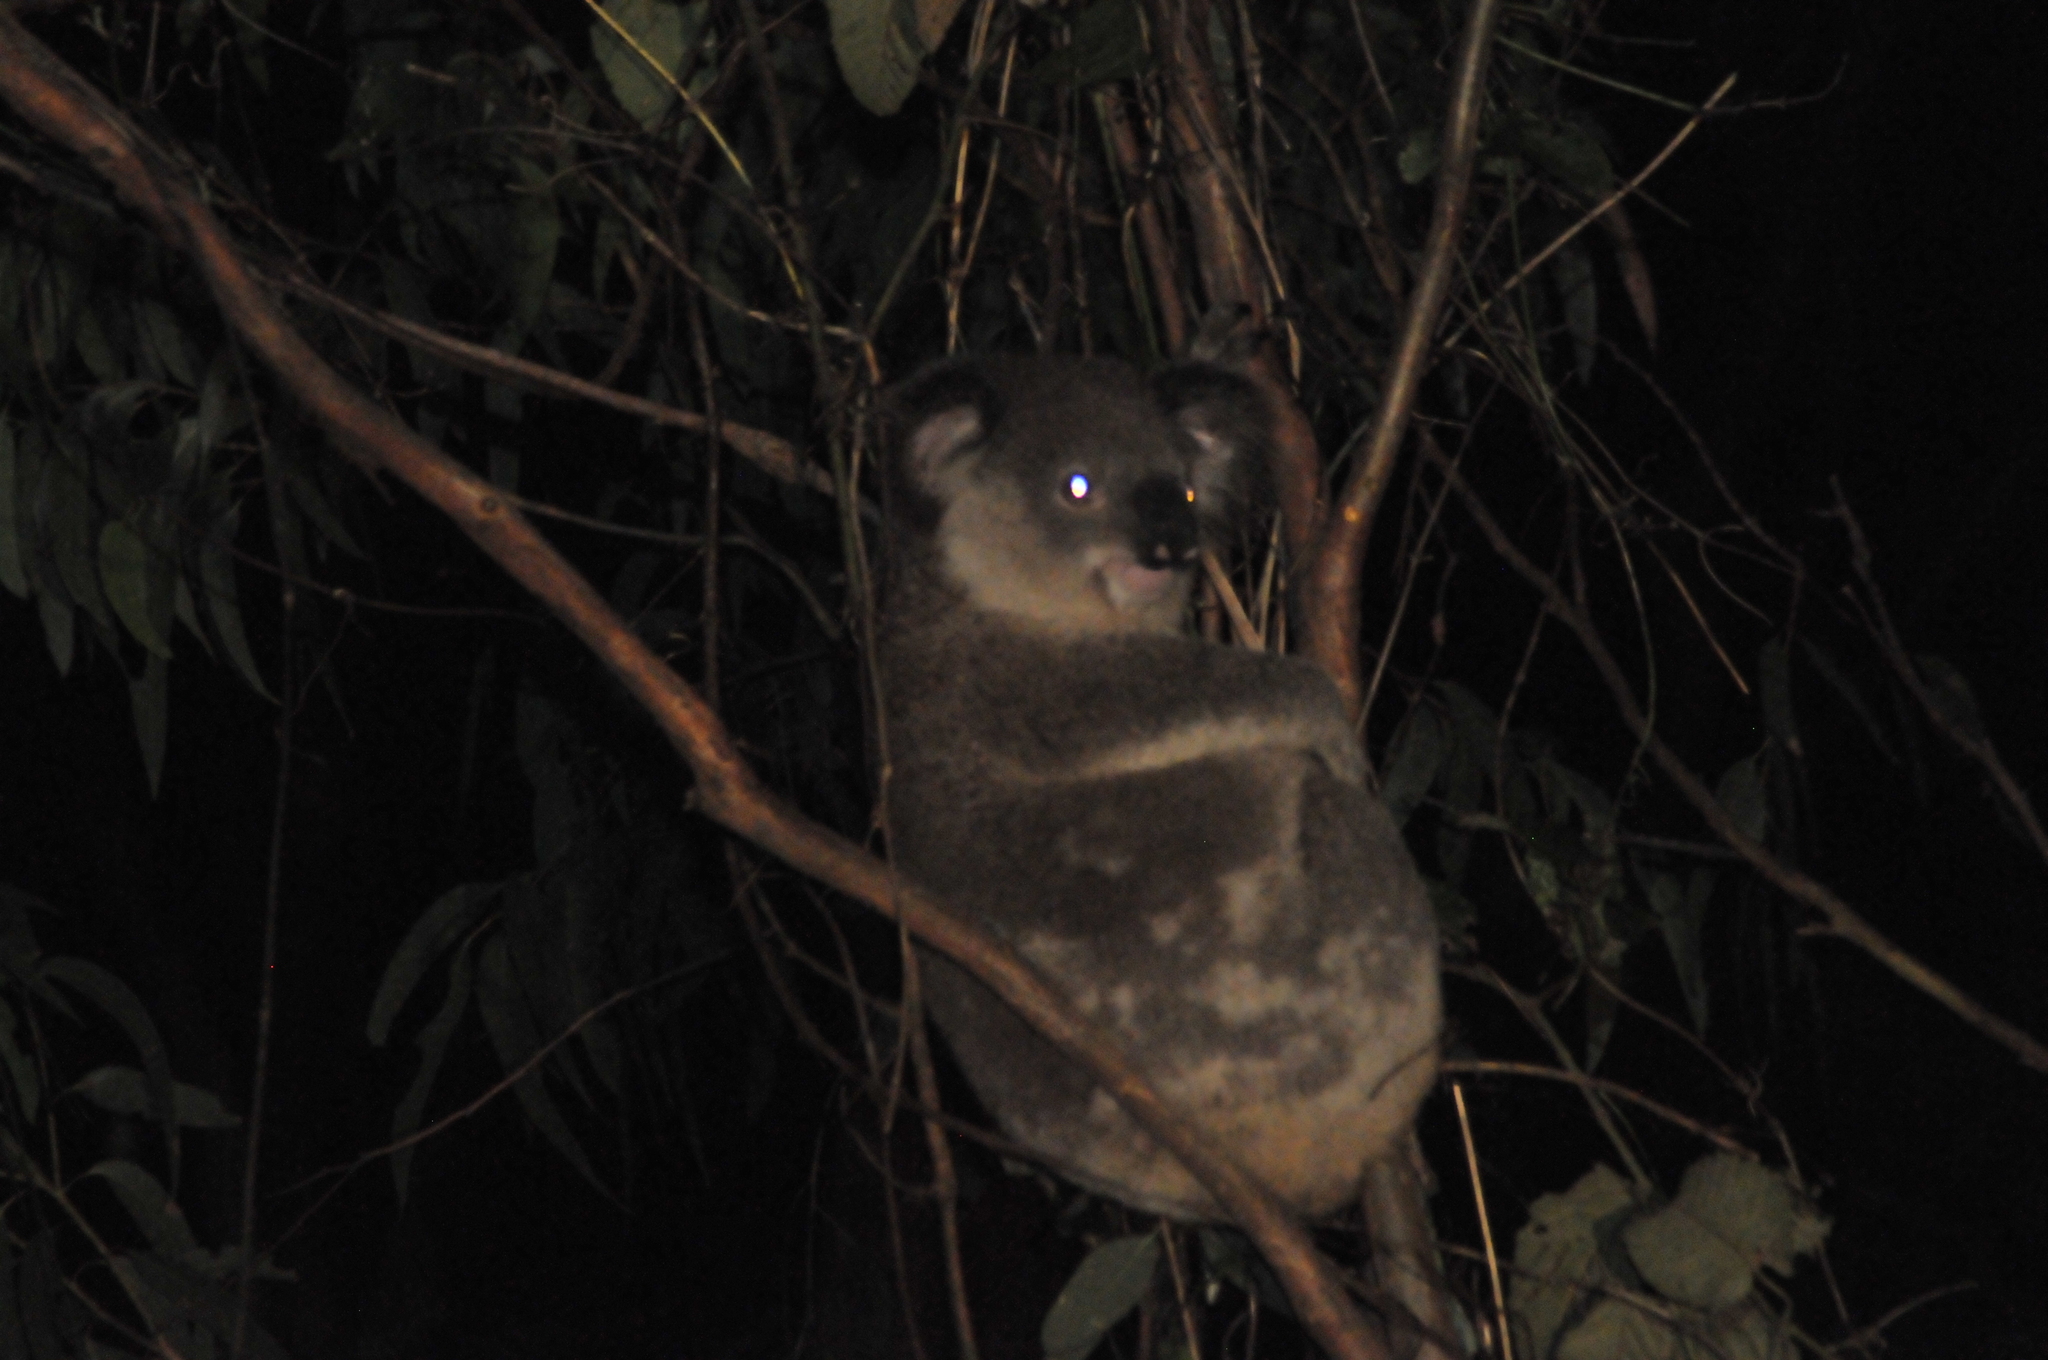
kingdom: Animalia
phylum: Chordata
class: Mammalia
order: Diprotodontia
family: Phascolarctidae
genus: Phascolarctos
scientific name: Phascolarctos cinereus
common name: Koala
